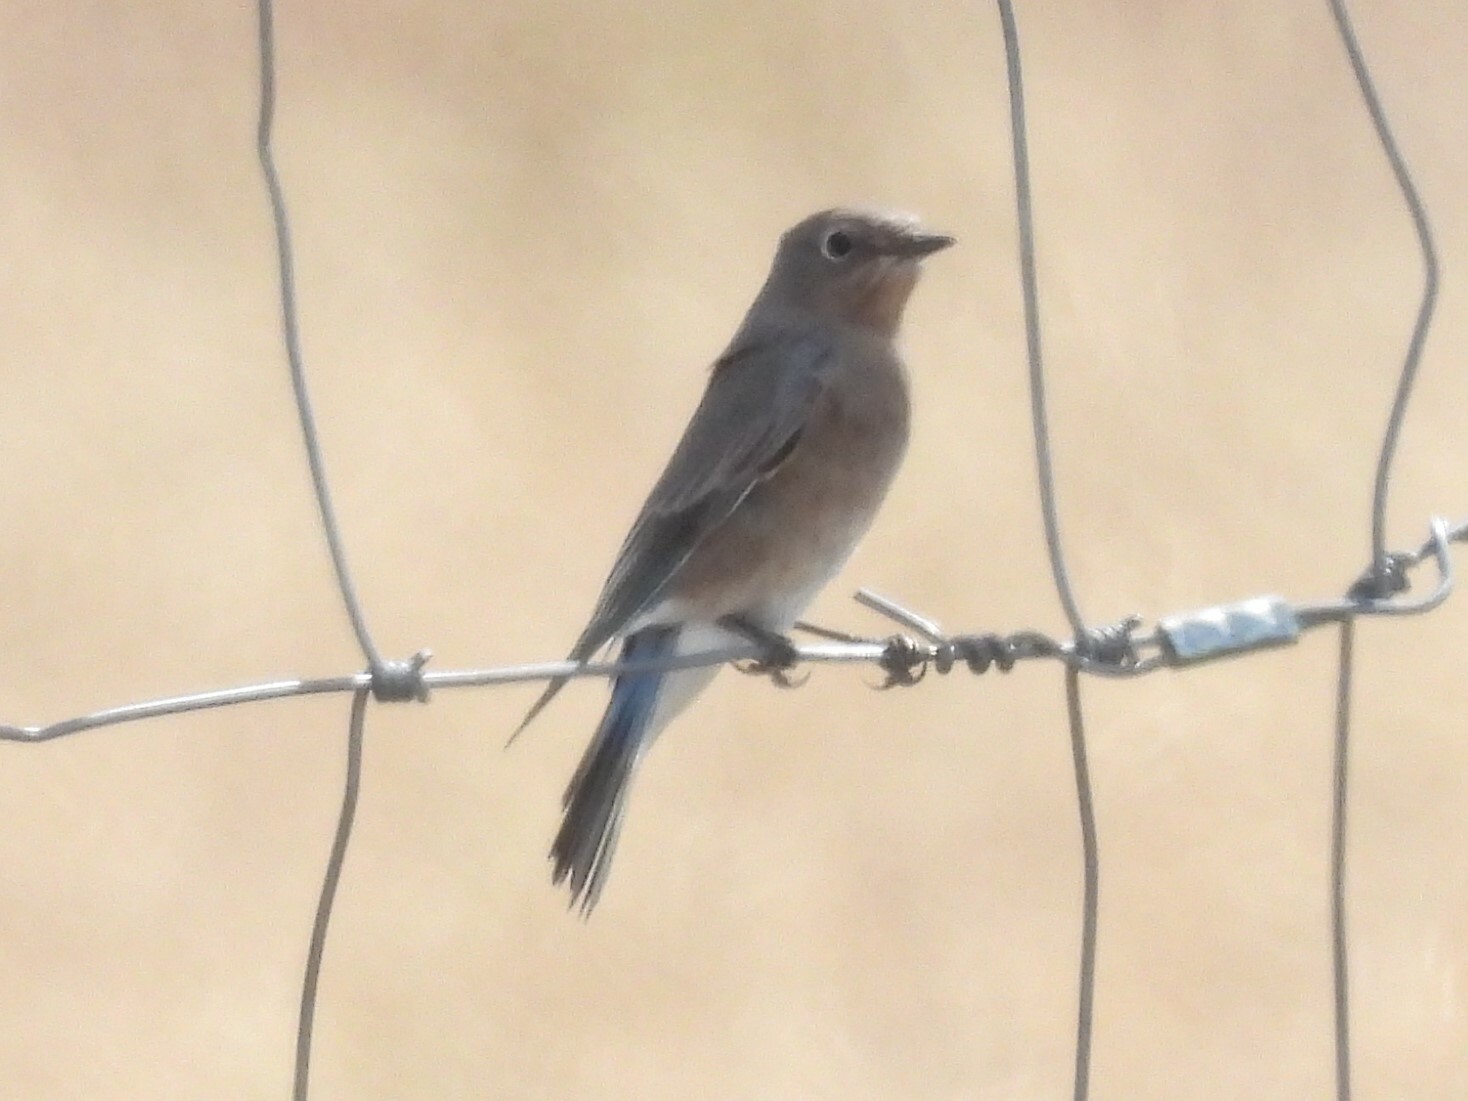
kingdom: Animalia
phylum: Chordata
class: Aves
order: Passeriformes
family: Turdidae
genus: Sialia
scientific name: Sialia mexicana
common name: Western bluebird
